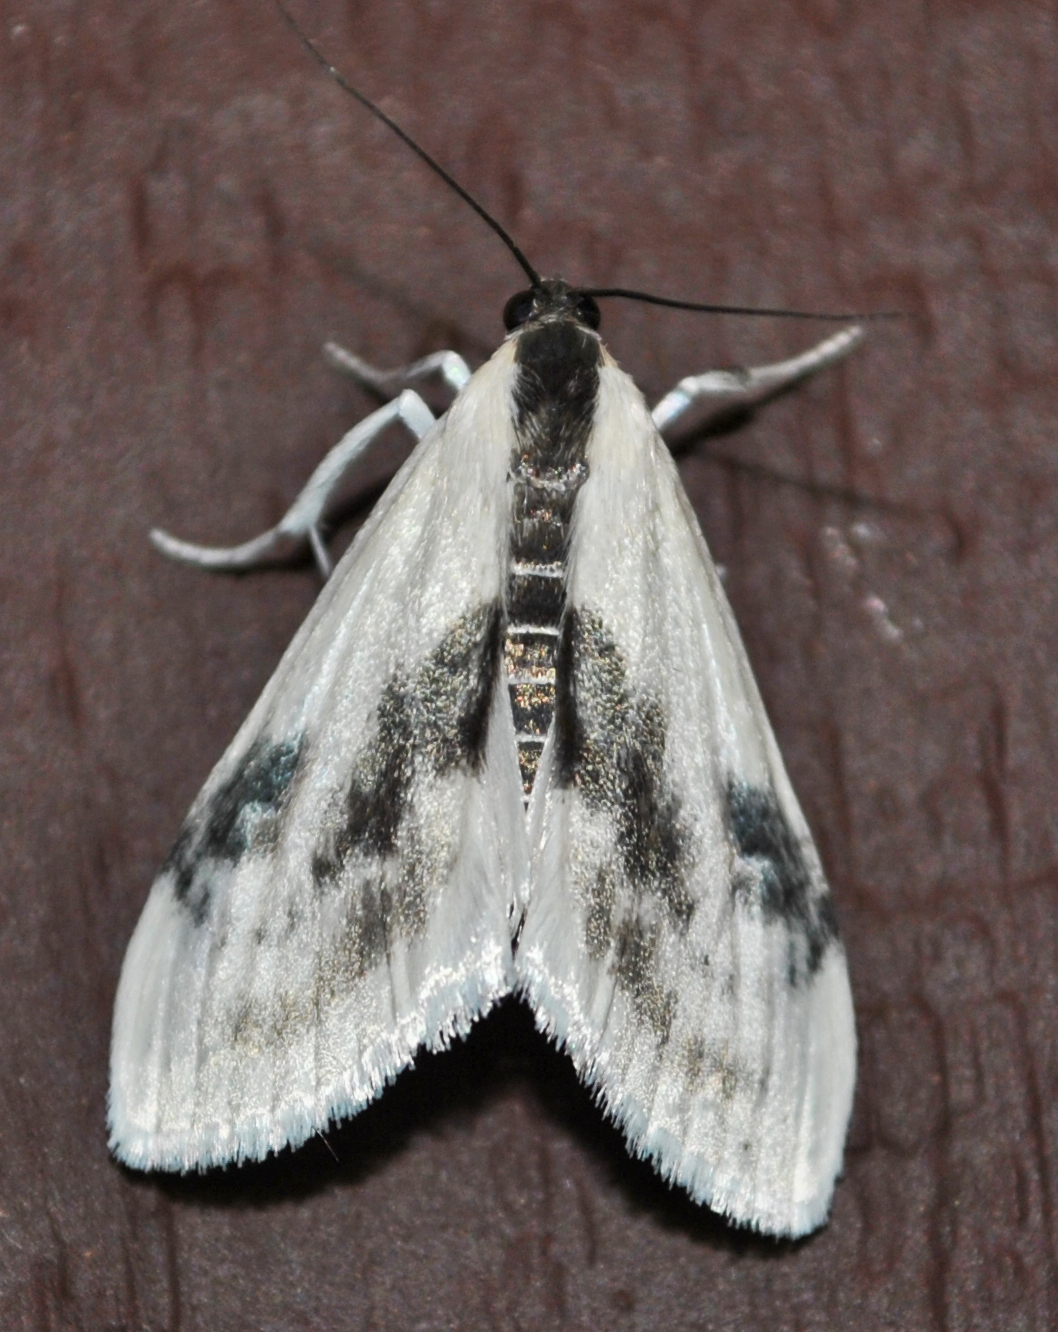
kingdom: Animalia
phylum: Arthropoda
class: Insecta
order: Lepidoptera
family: Crambidae
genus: Cliniodes
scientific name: Cliniodes
